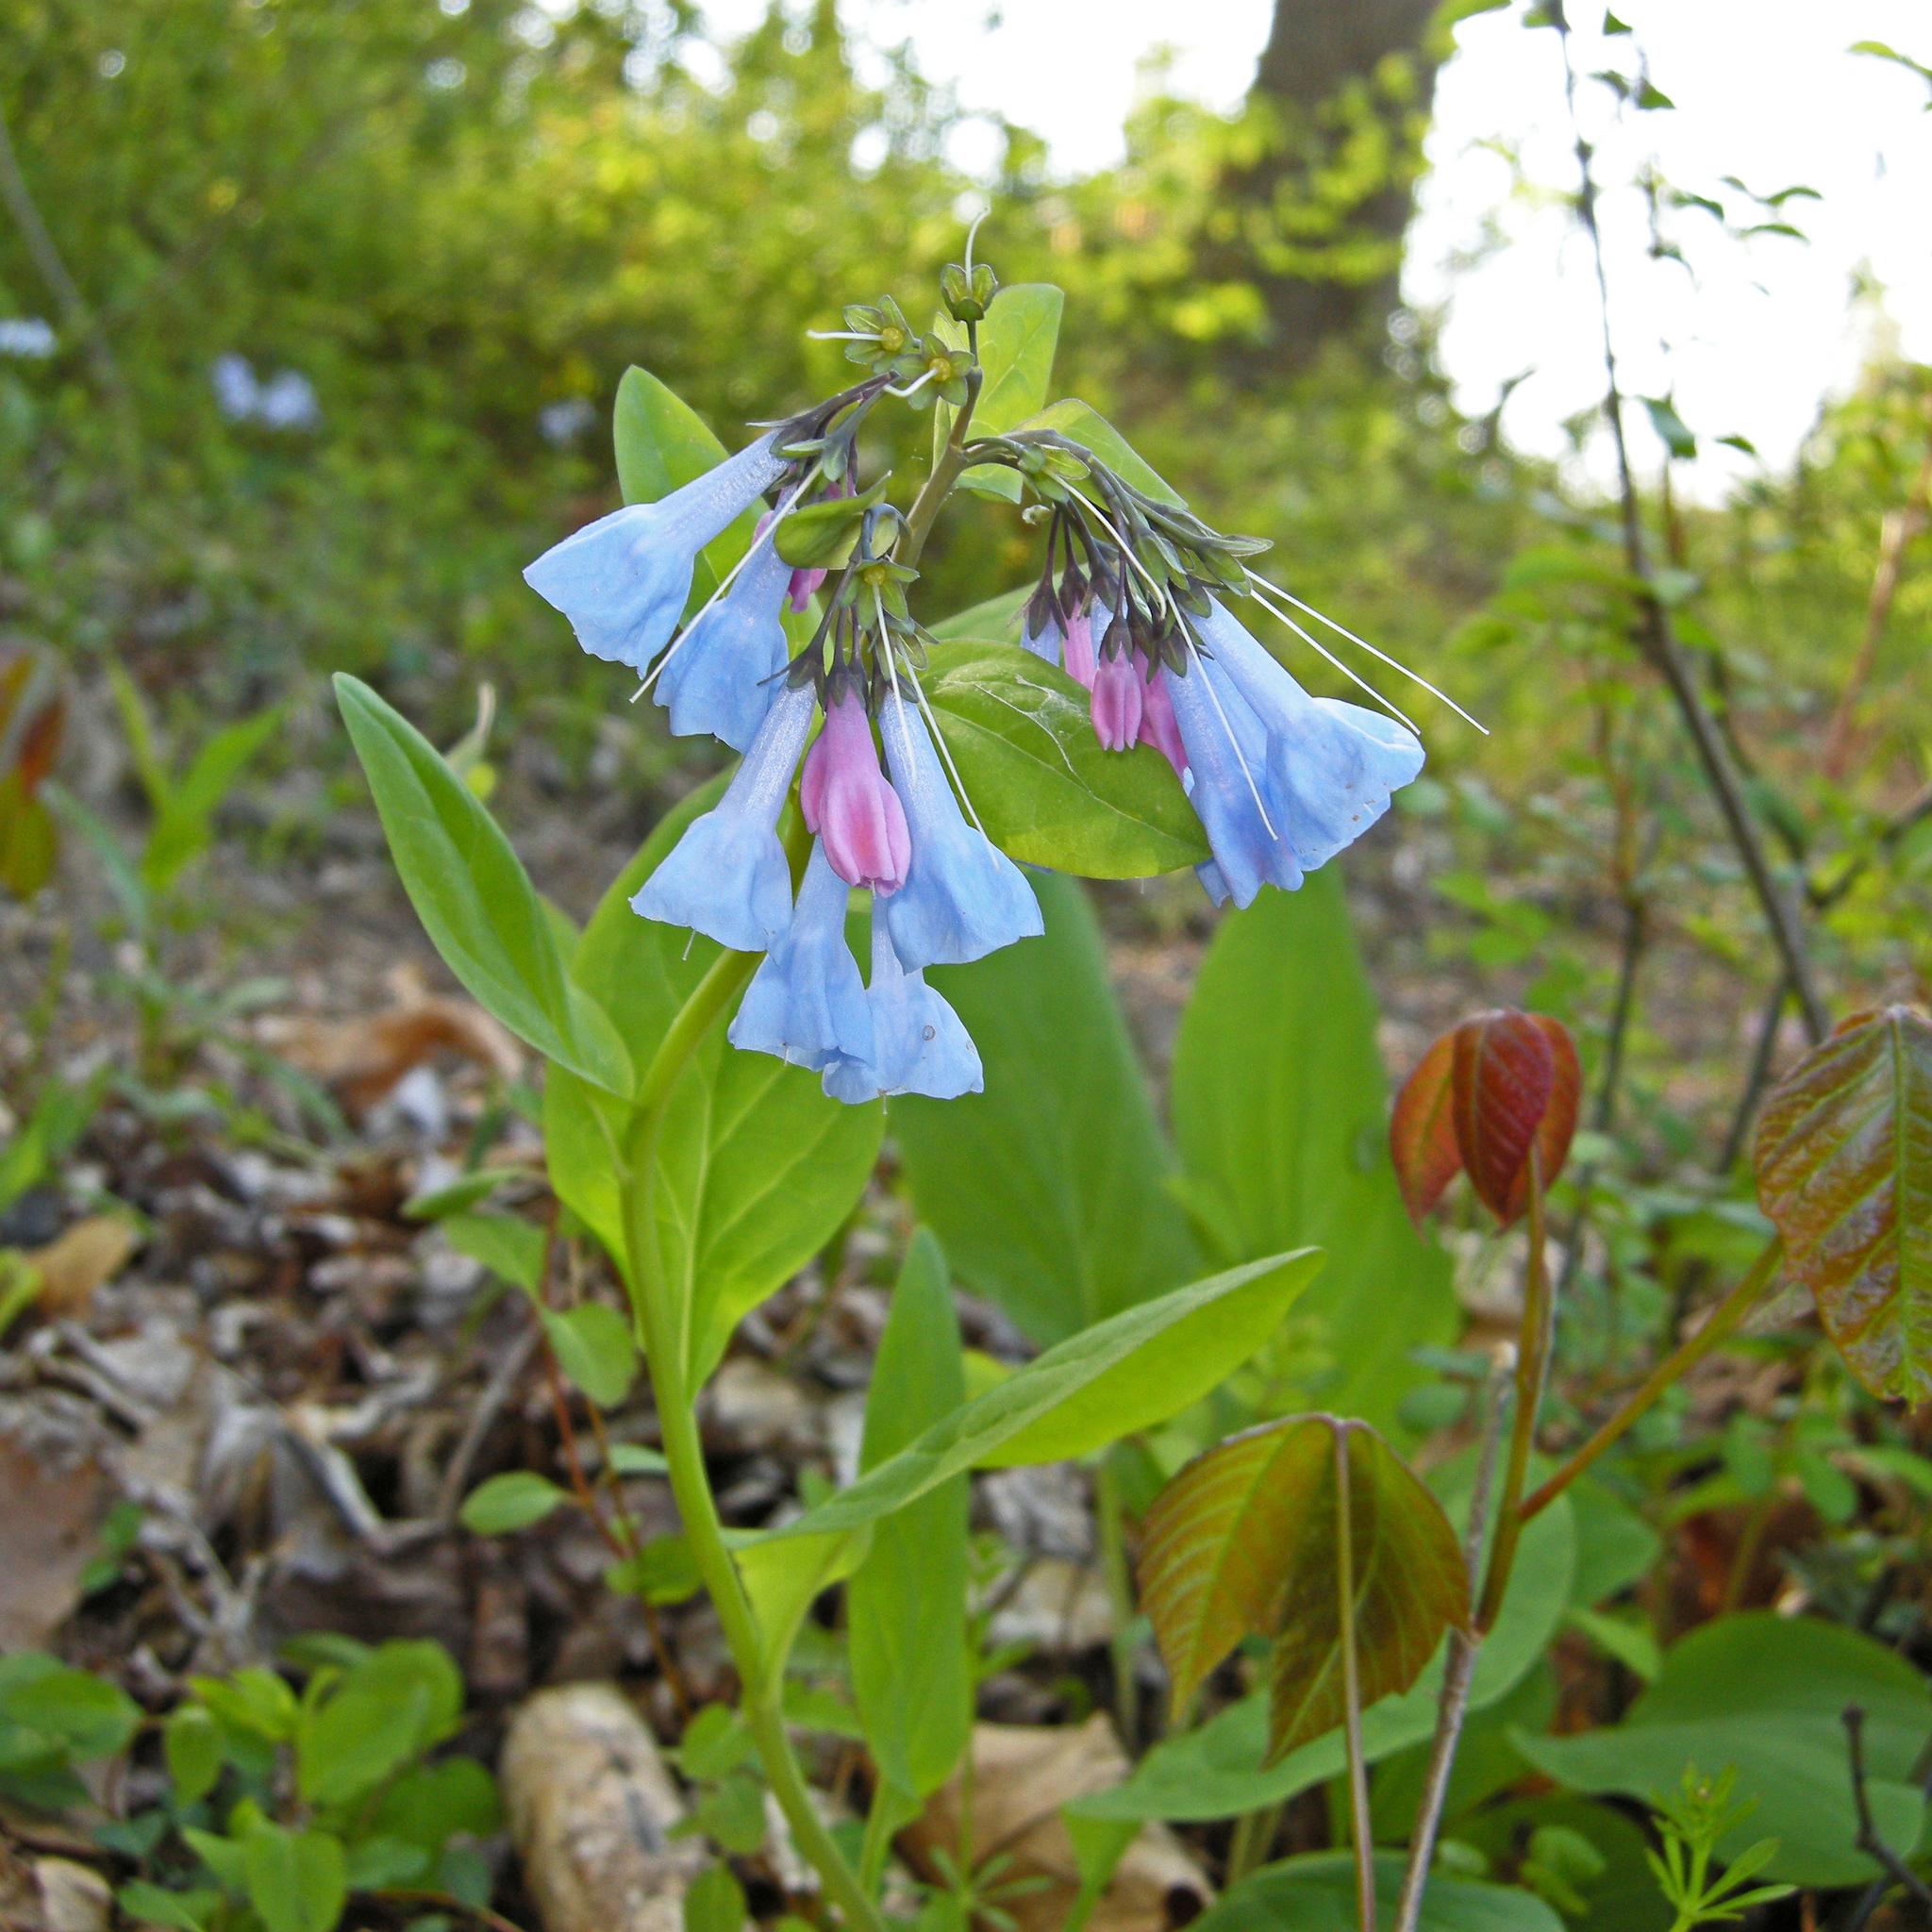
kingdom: Plantae
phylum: Tracheophyta
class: Magnoliopsida
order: Boraginales
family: Boraginaceae
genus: Mertensia
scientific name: Mertensia virginica
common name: Virginia bluebells
